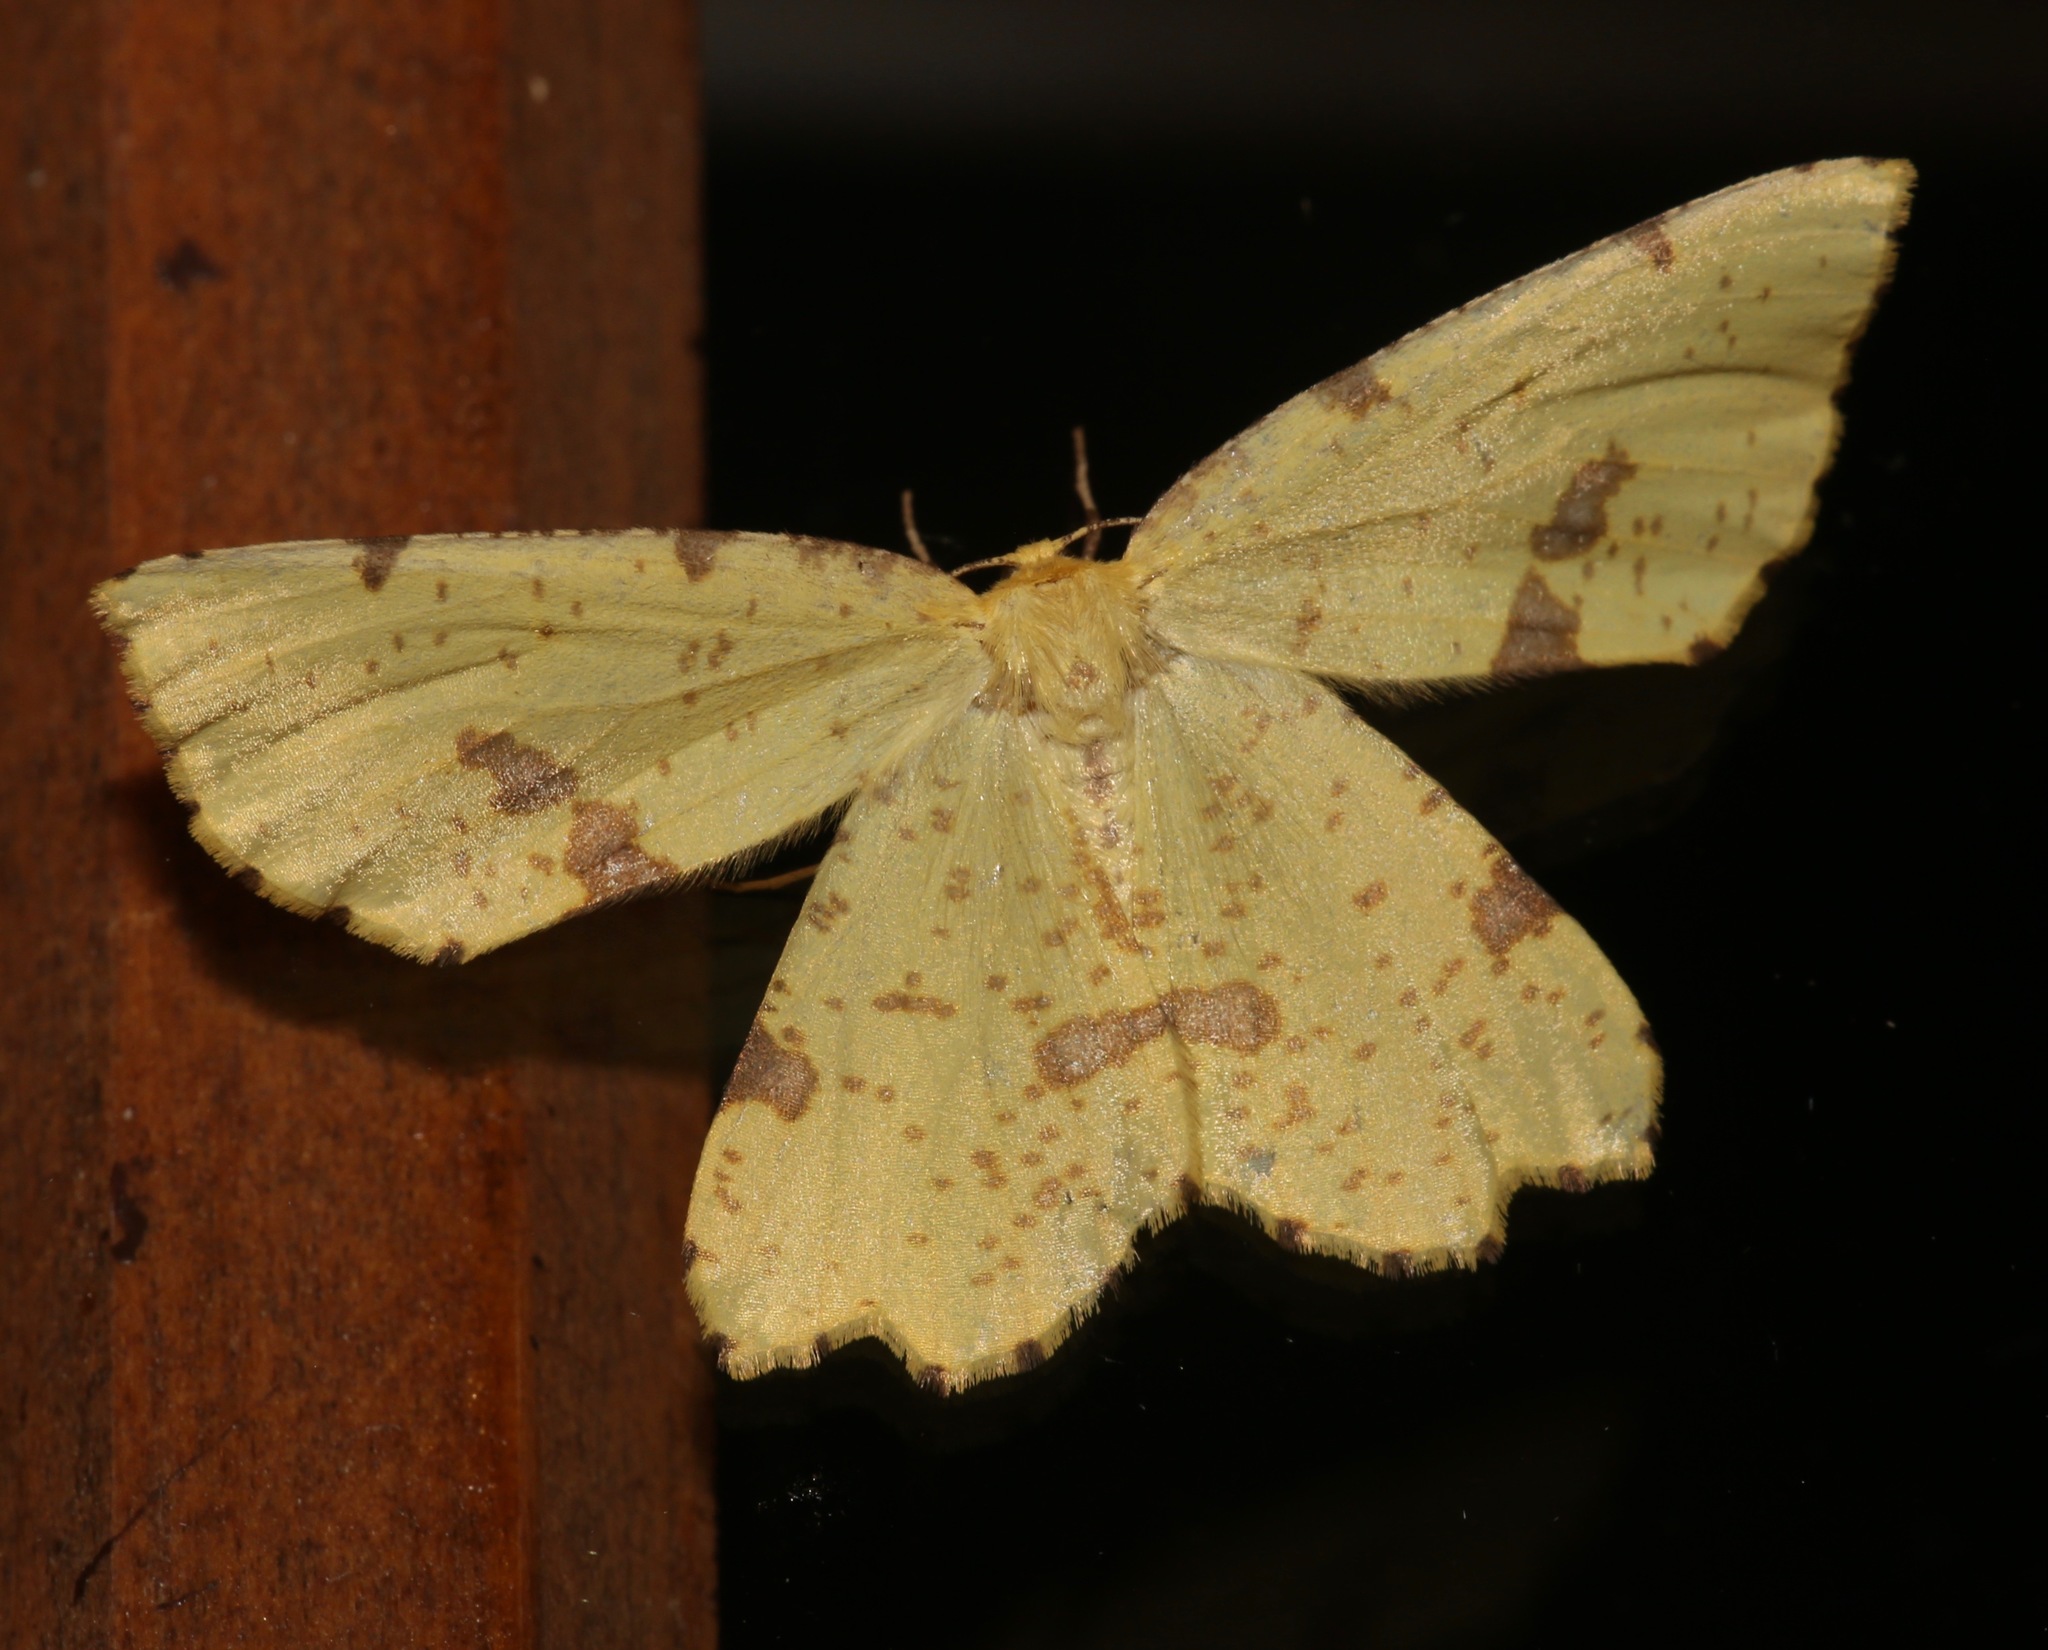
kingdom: Animalia
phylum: Arthropoda
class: Insecta
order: Lepidoptera
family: Geometridae
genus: Xanthotype
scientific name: Xanthotype sospeta
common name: Crocus geometer
